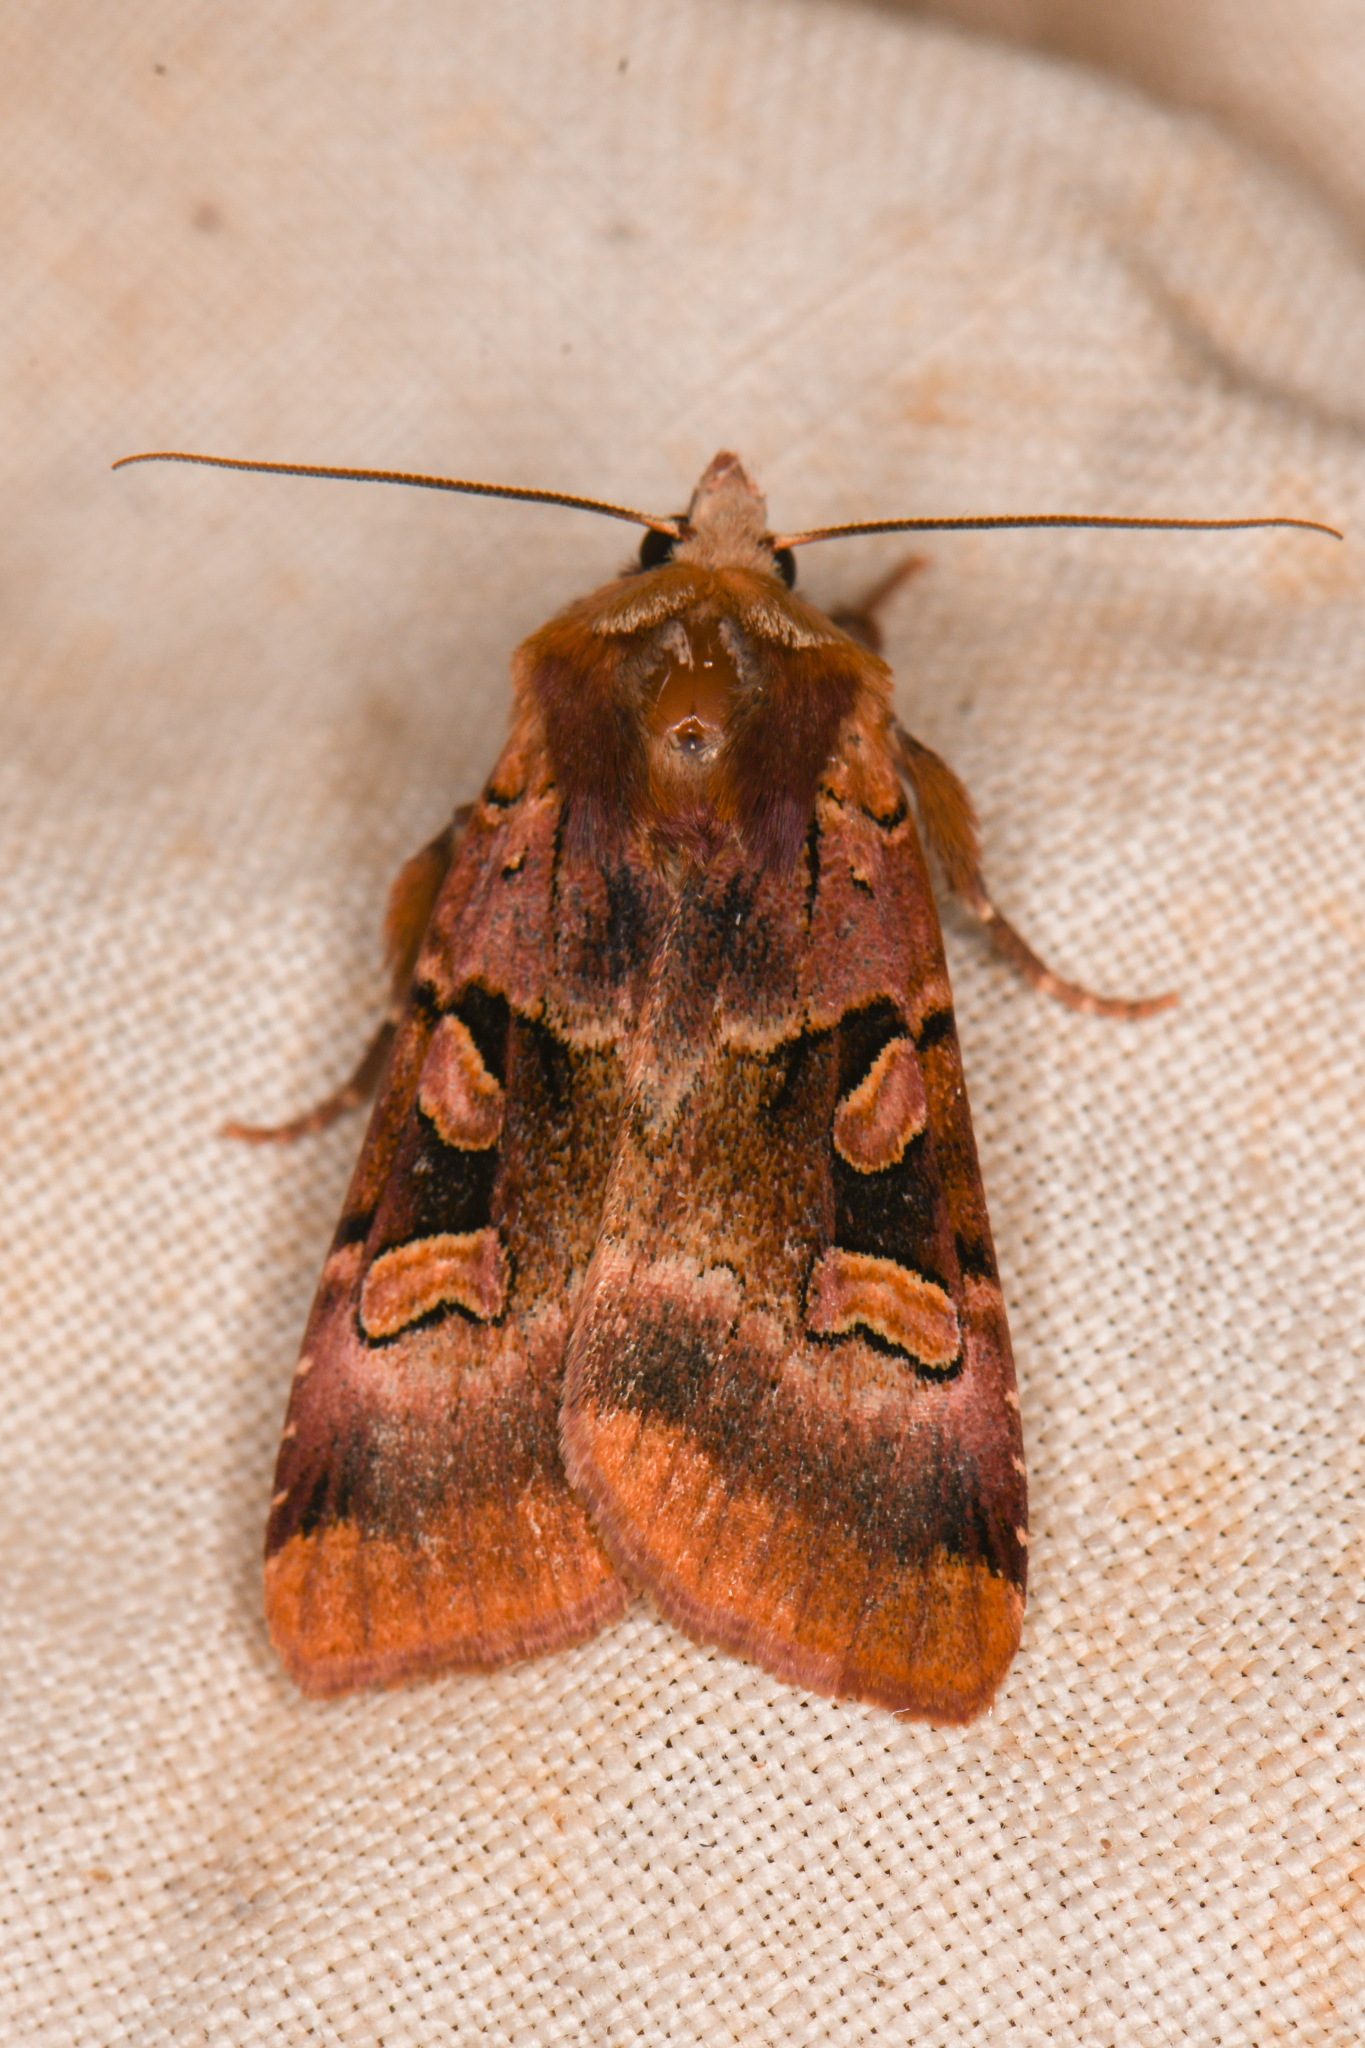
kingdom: Animalia
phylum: Arthropoda
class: Insecta
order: Lepidoptera
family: Noctuidae
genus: Xestia
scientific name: Xestia oblata
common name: Rosy dart
